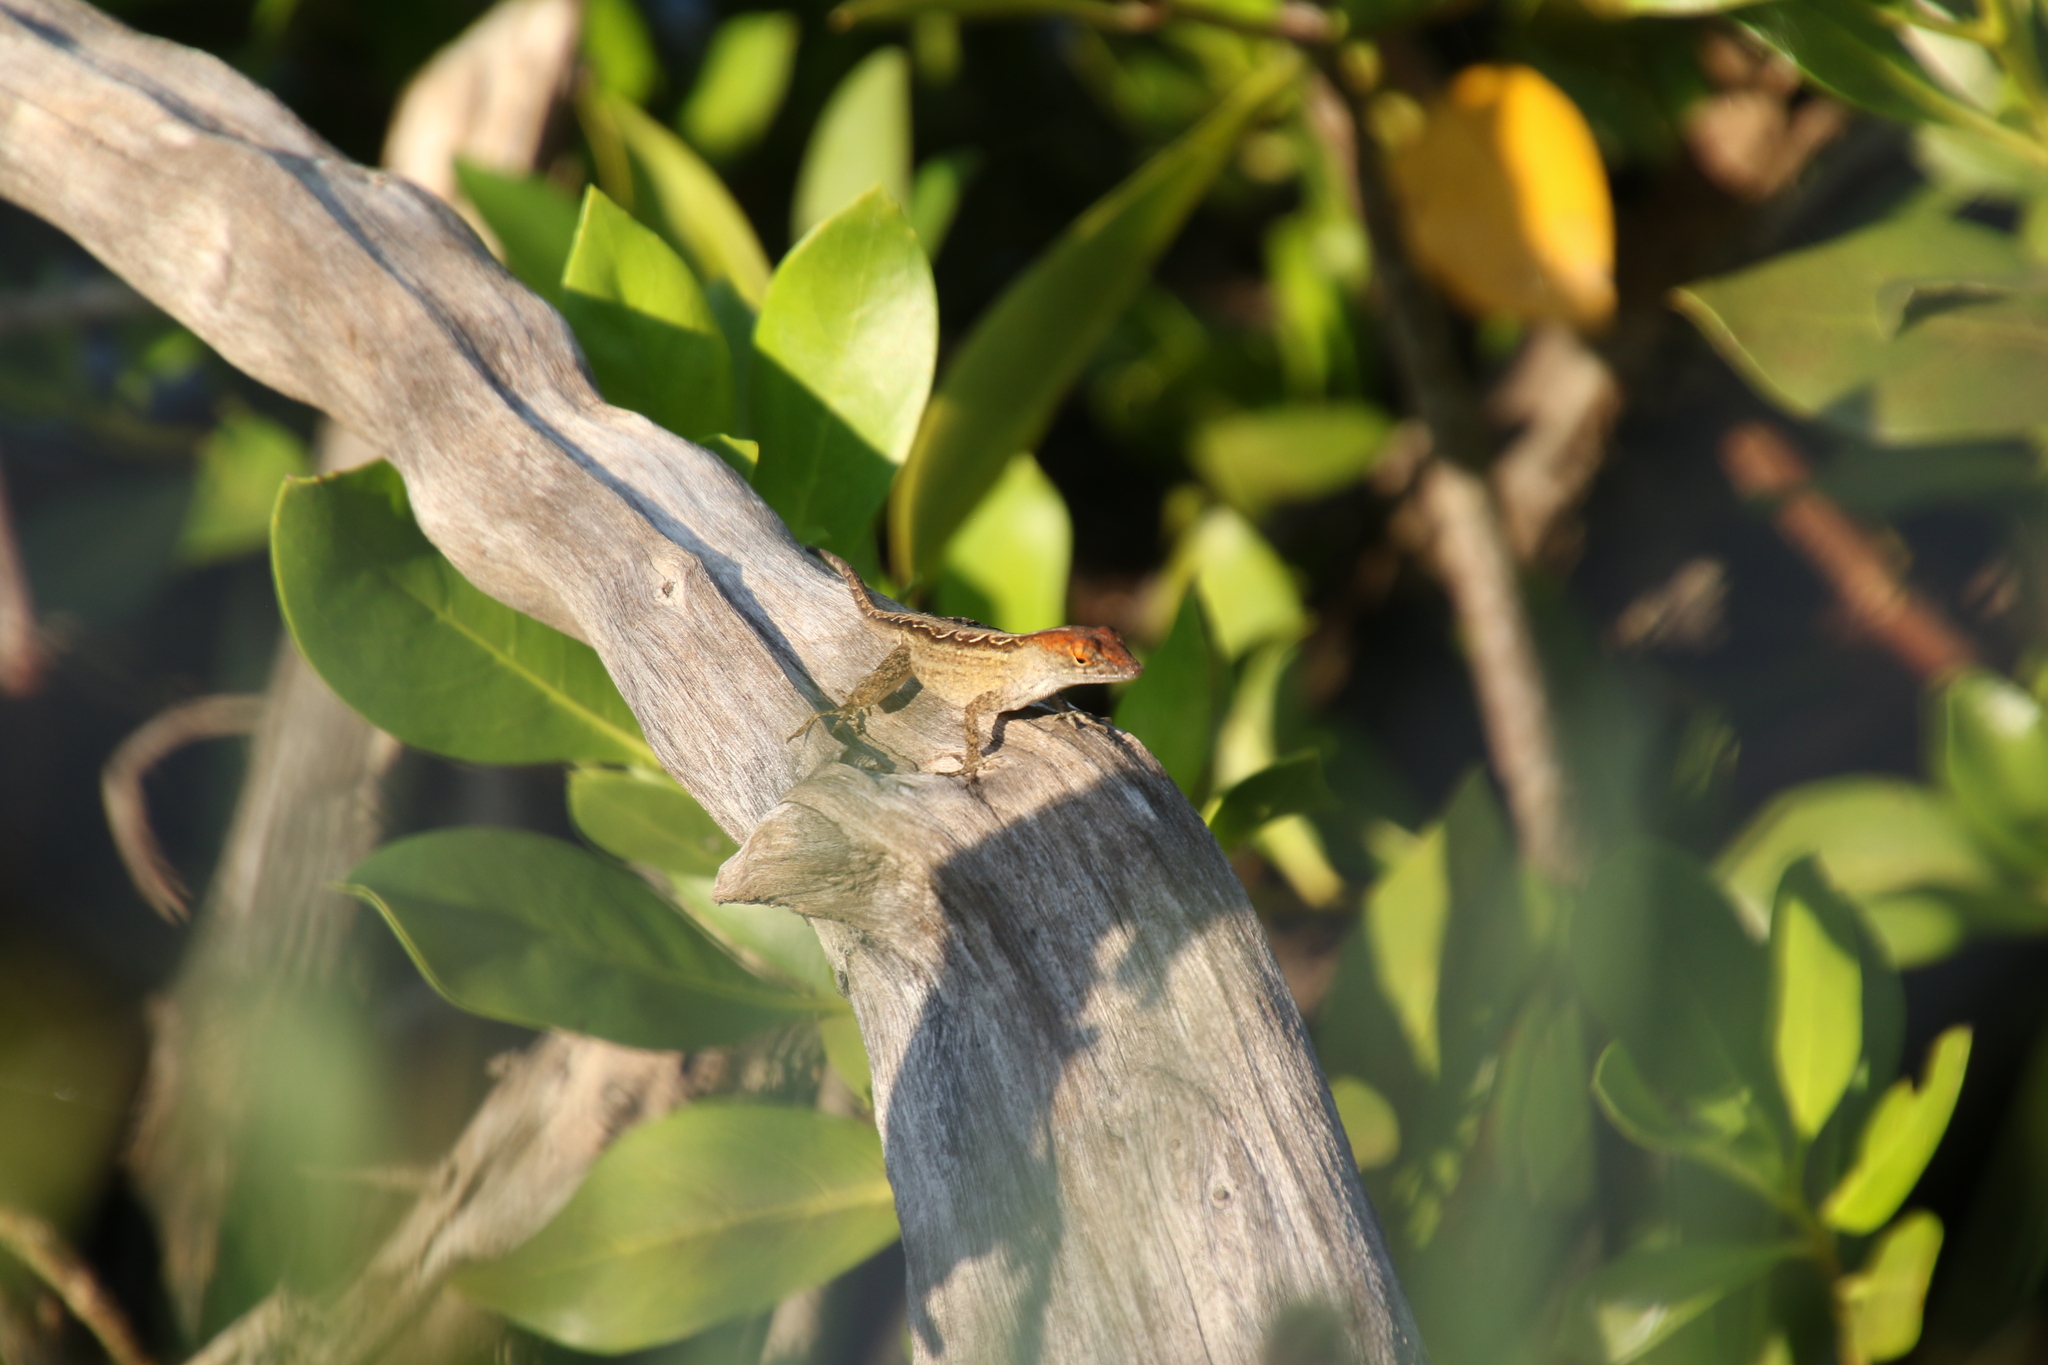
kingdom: Animalia
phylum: Chordata
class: Squamata
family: Dactyloidae
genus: Anolis
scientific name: Anolis sagrei
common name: Brown anole
